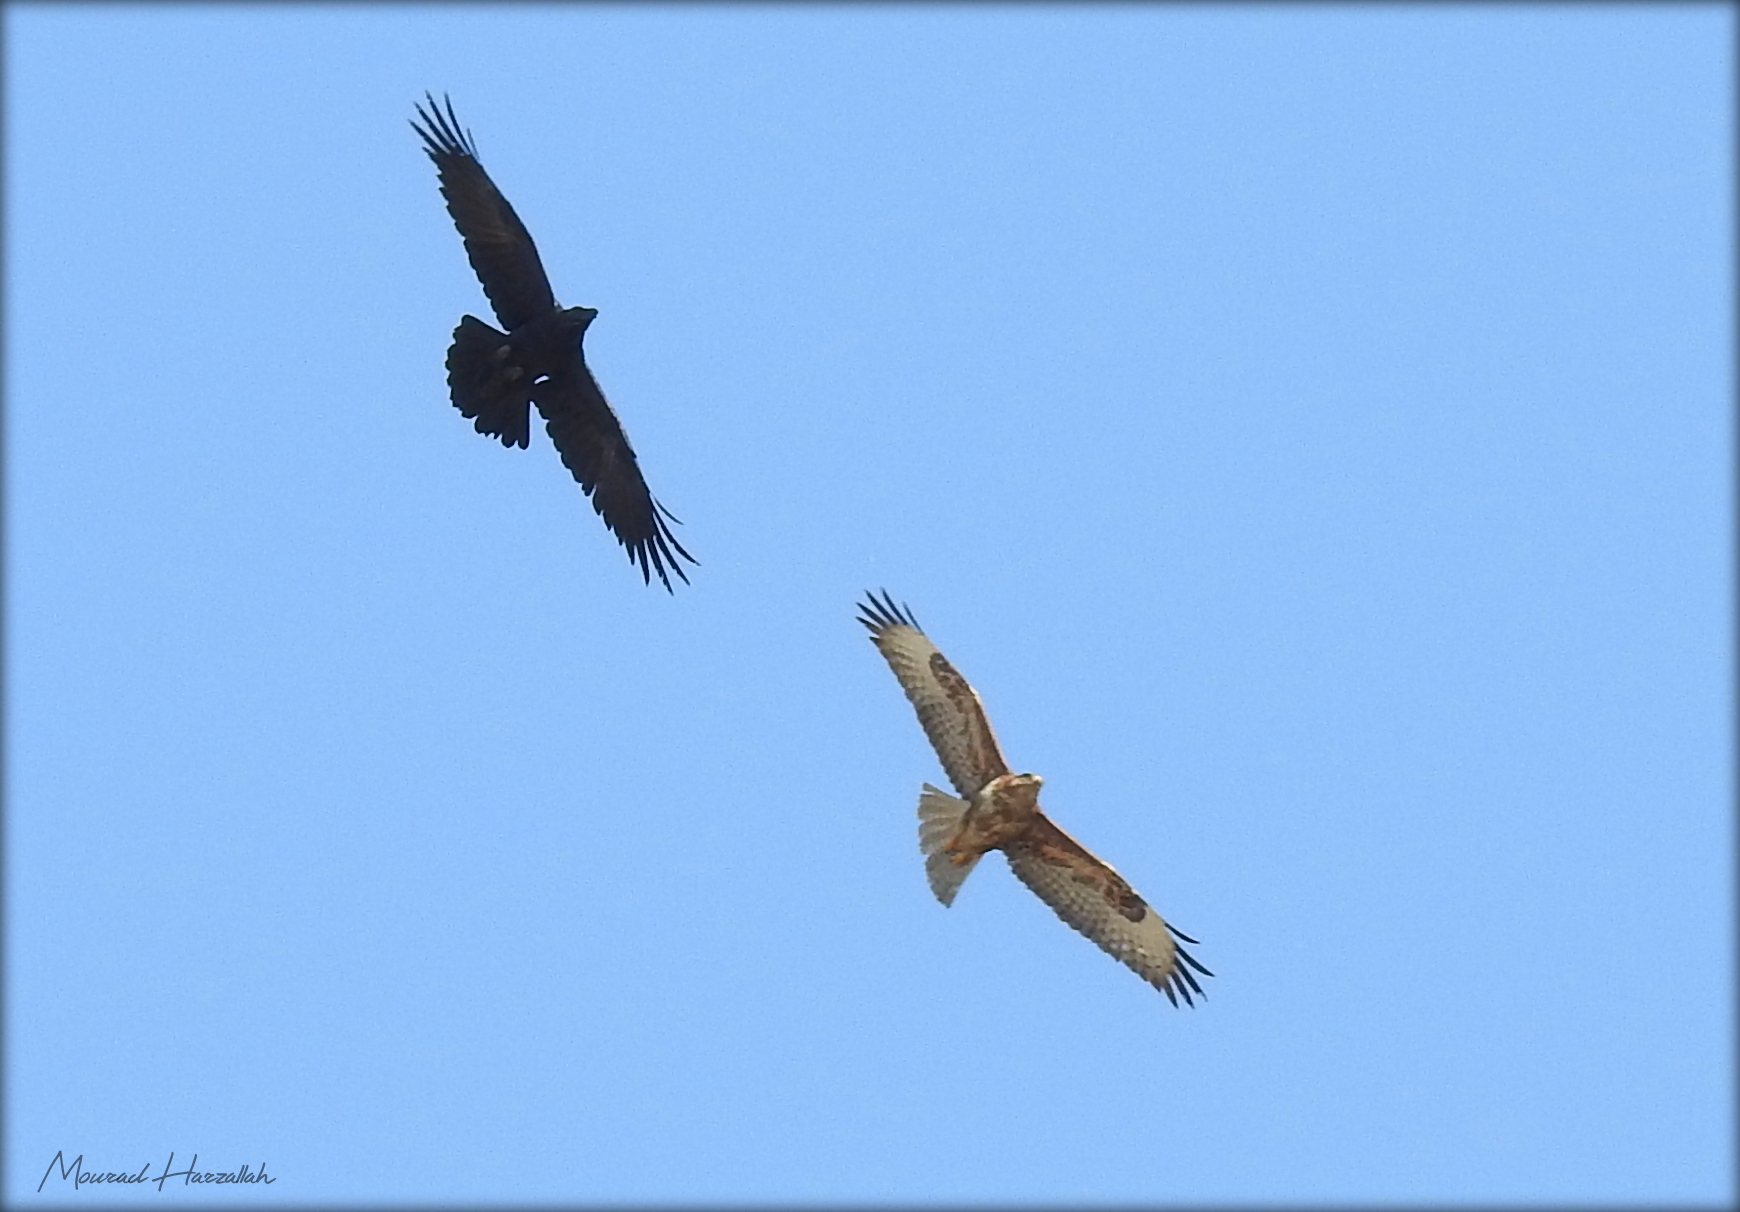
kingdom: Animalia
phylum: Chordata
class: Aves
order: Accipitriformes
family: Accipitridae
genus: Buteo
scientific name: Buteo rufinus
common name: Long-legged buzzard
